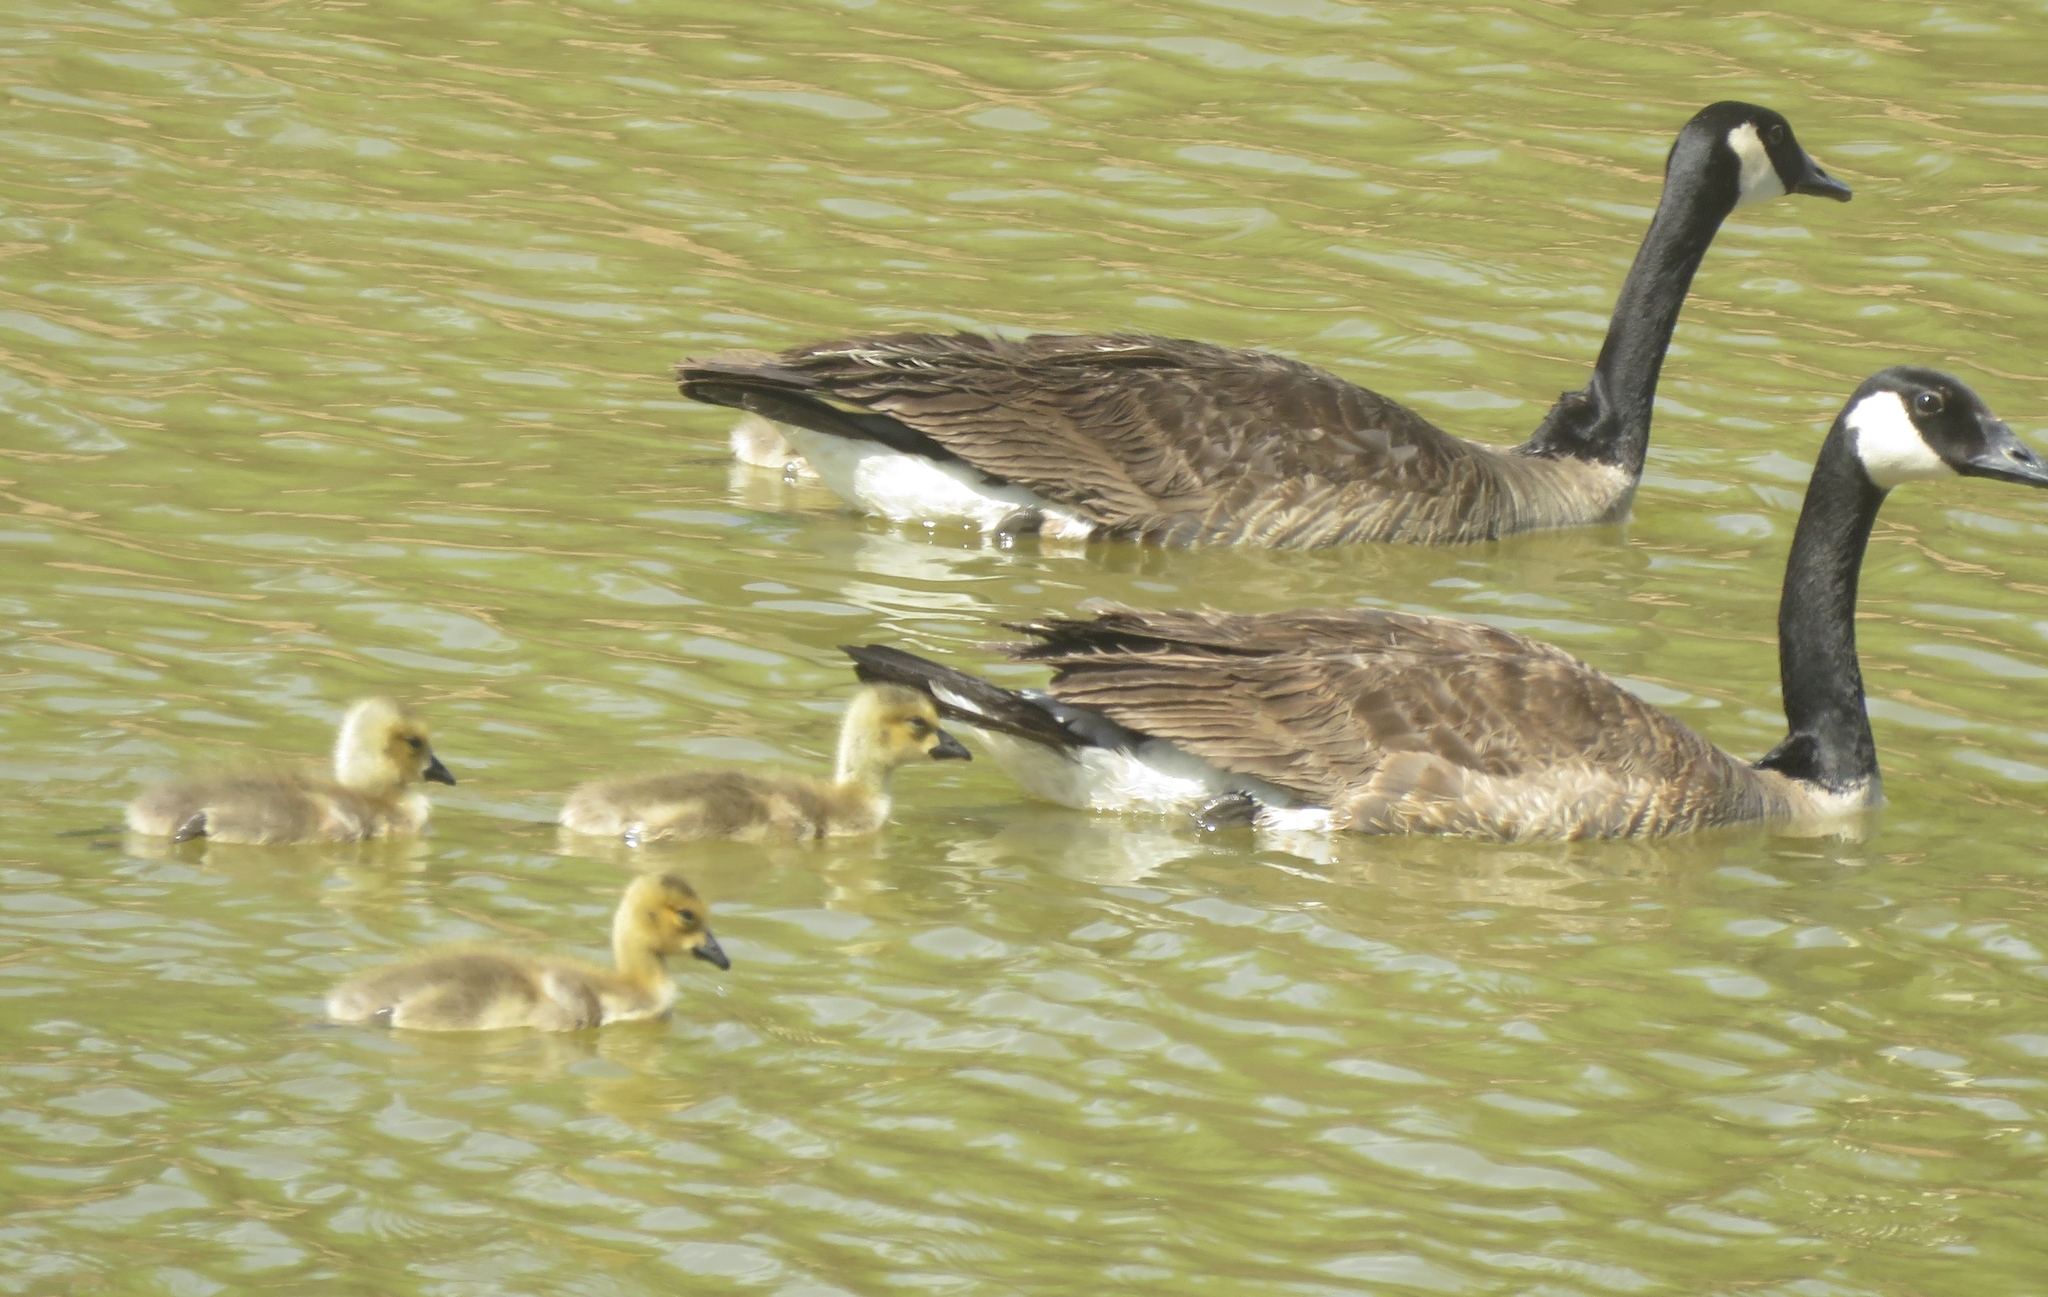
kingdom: Animalia
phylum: Chordata
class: Aves
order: Anseriformes
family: Anatidae
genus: Branta
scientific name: Branta canadensis
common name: Canada goose
